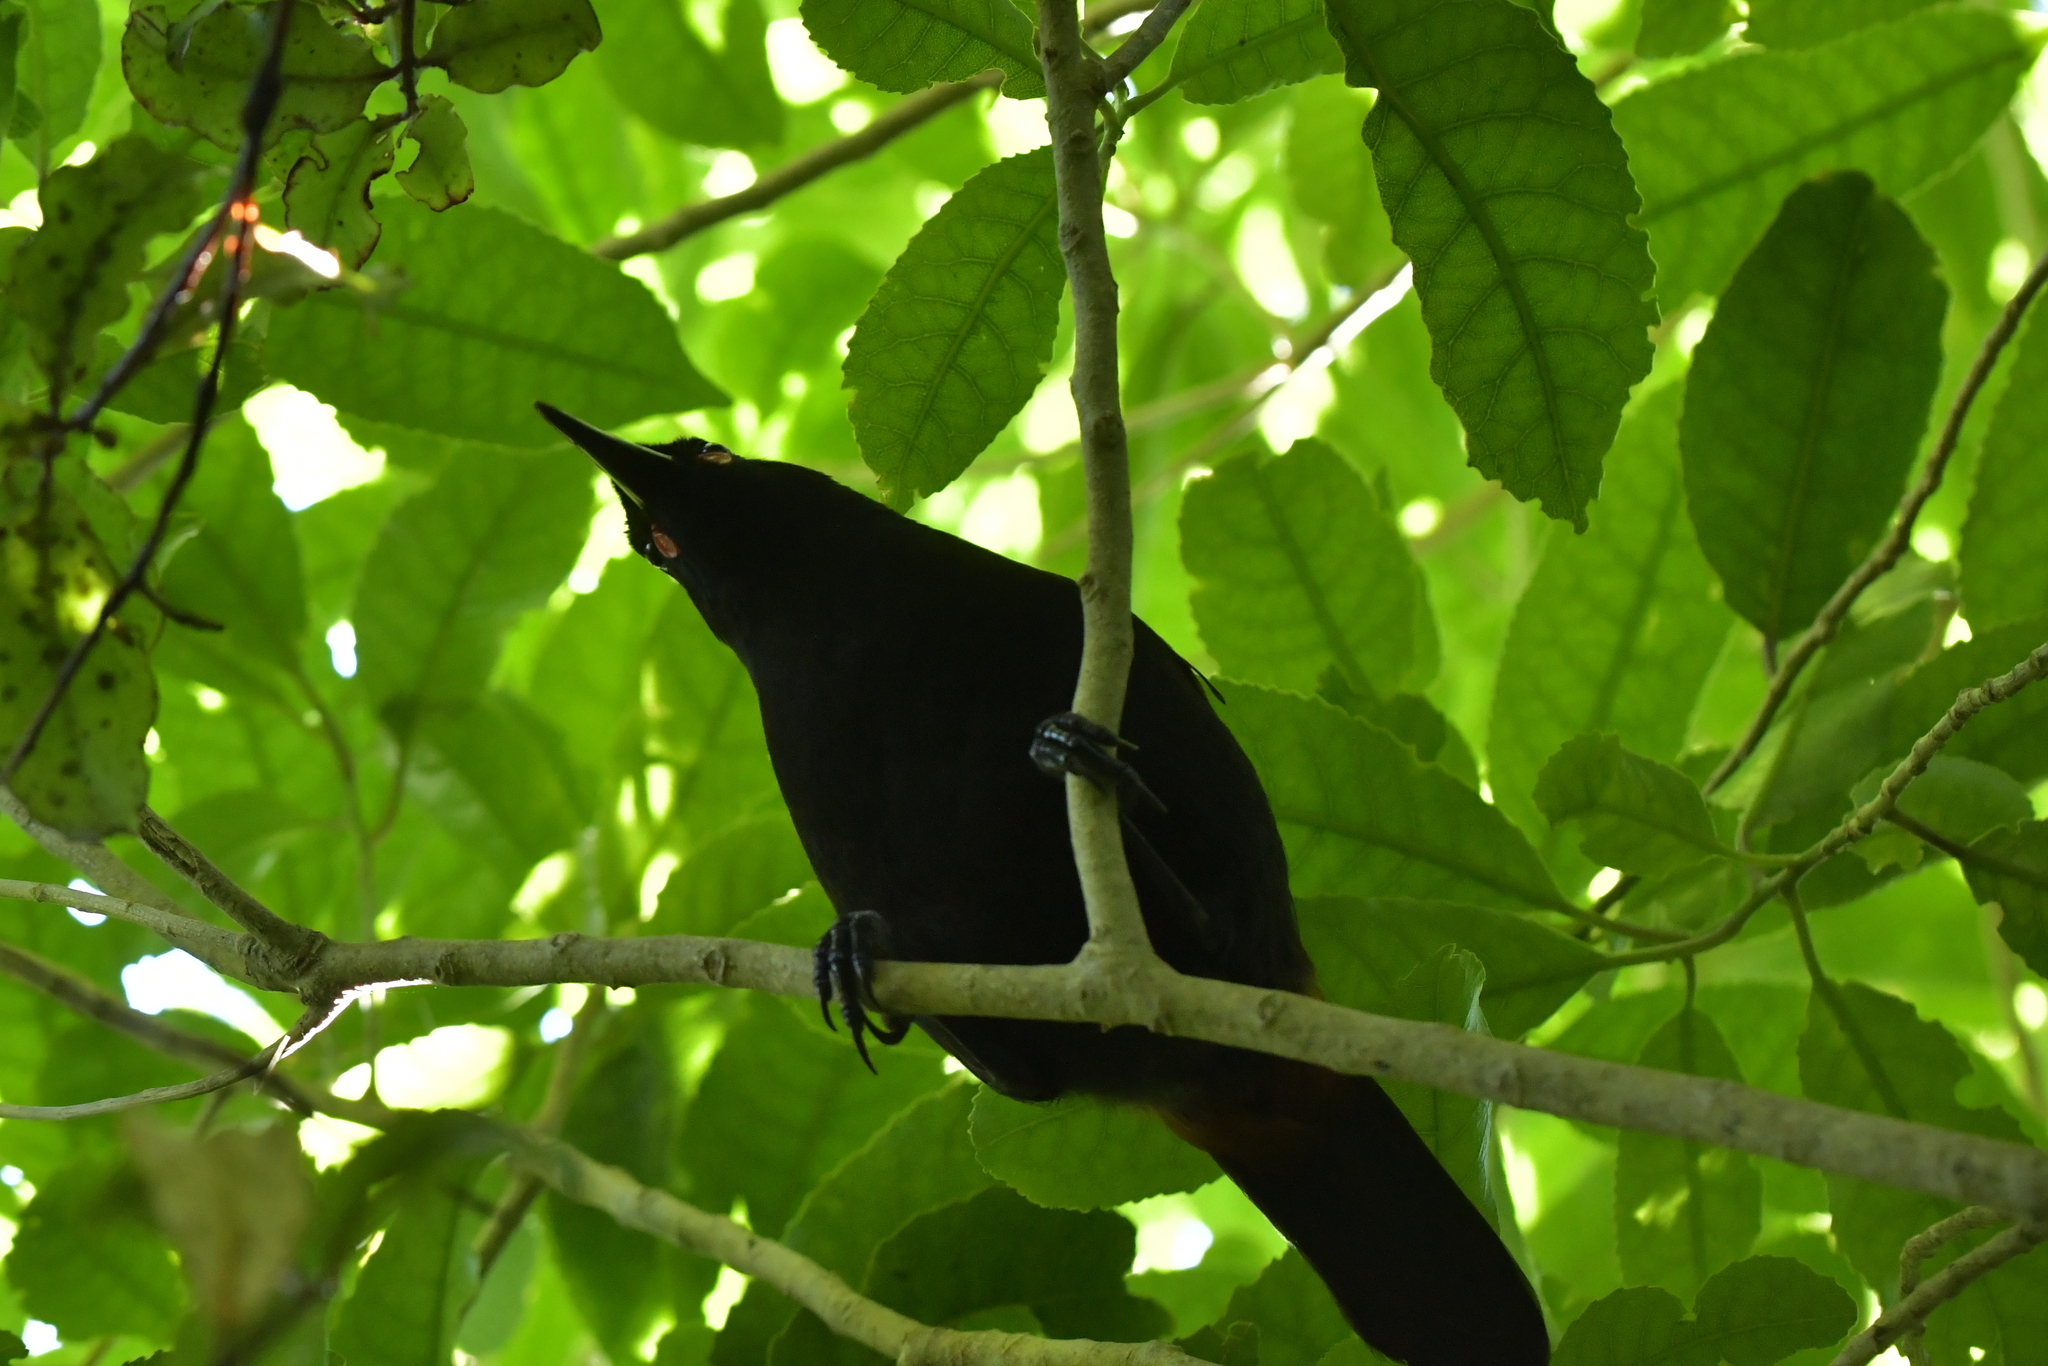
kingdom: Animalia
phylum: Chordata
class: Aves
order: Passeriformes
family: Callaeatidae
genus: Philesturnus
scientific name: Philesturnus carunculatus
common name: South island saddleback
